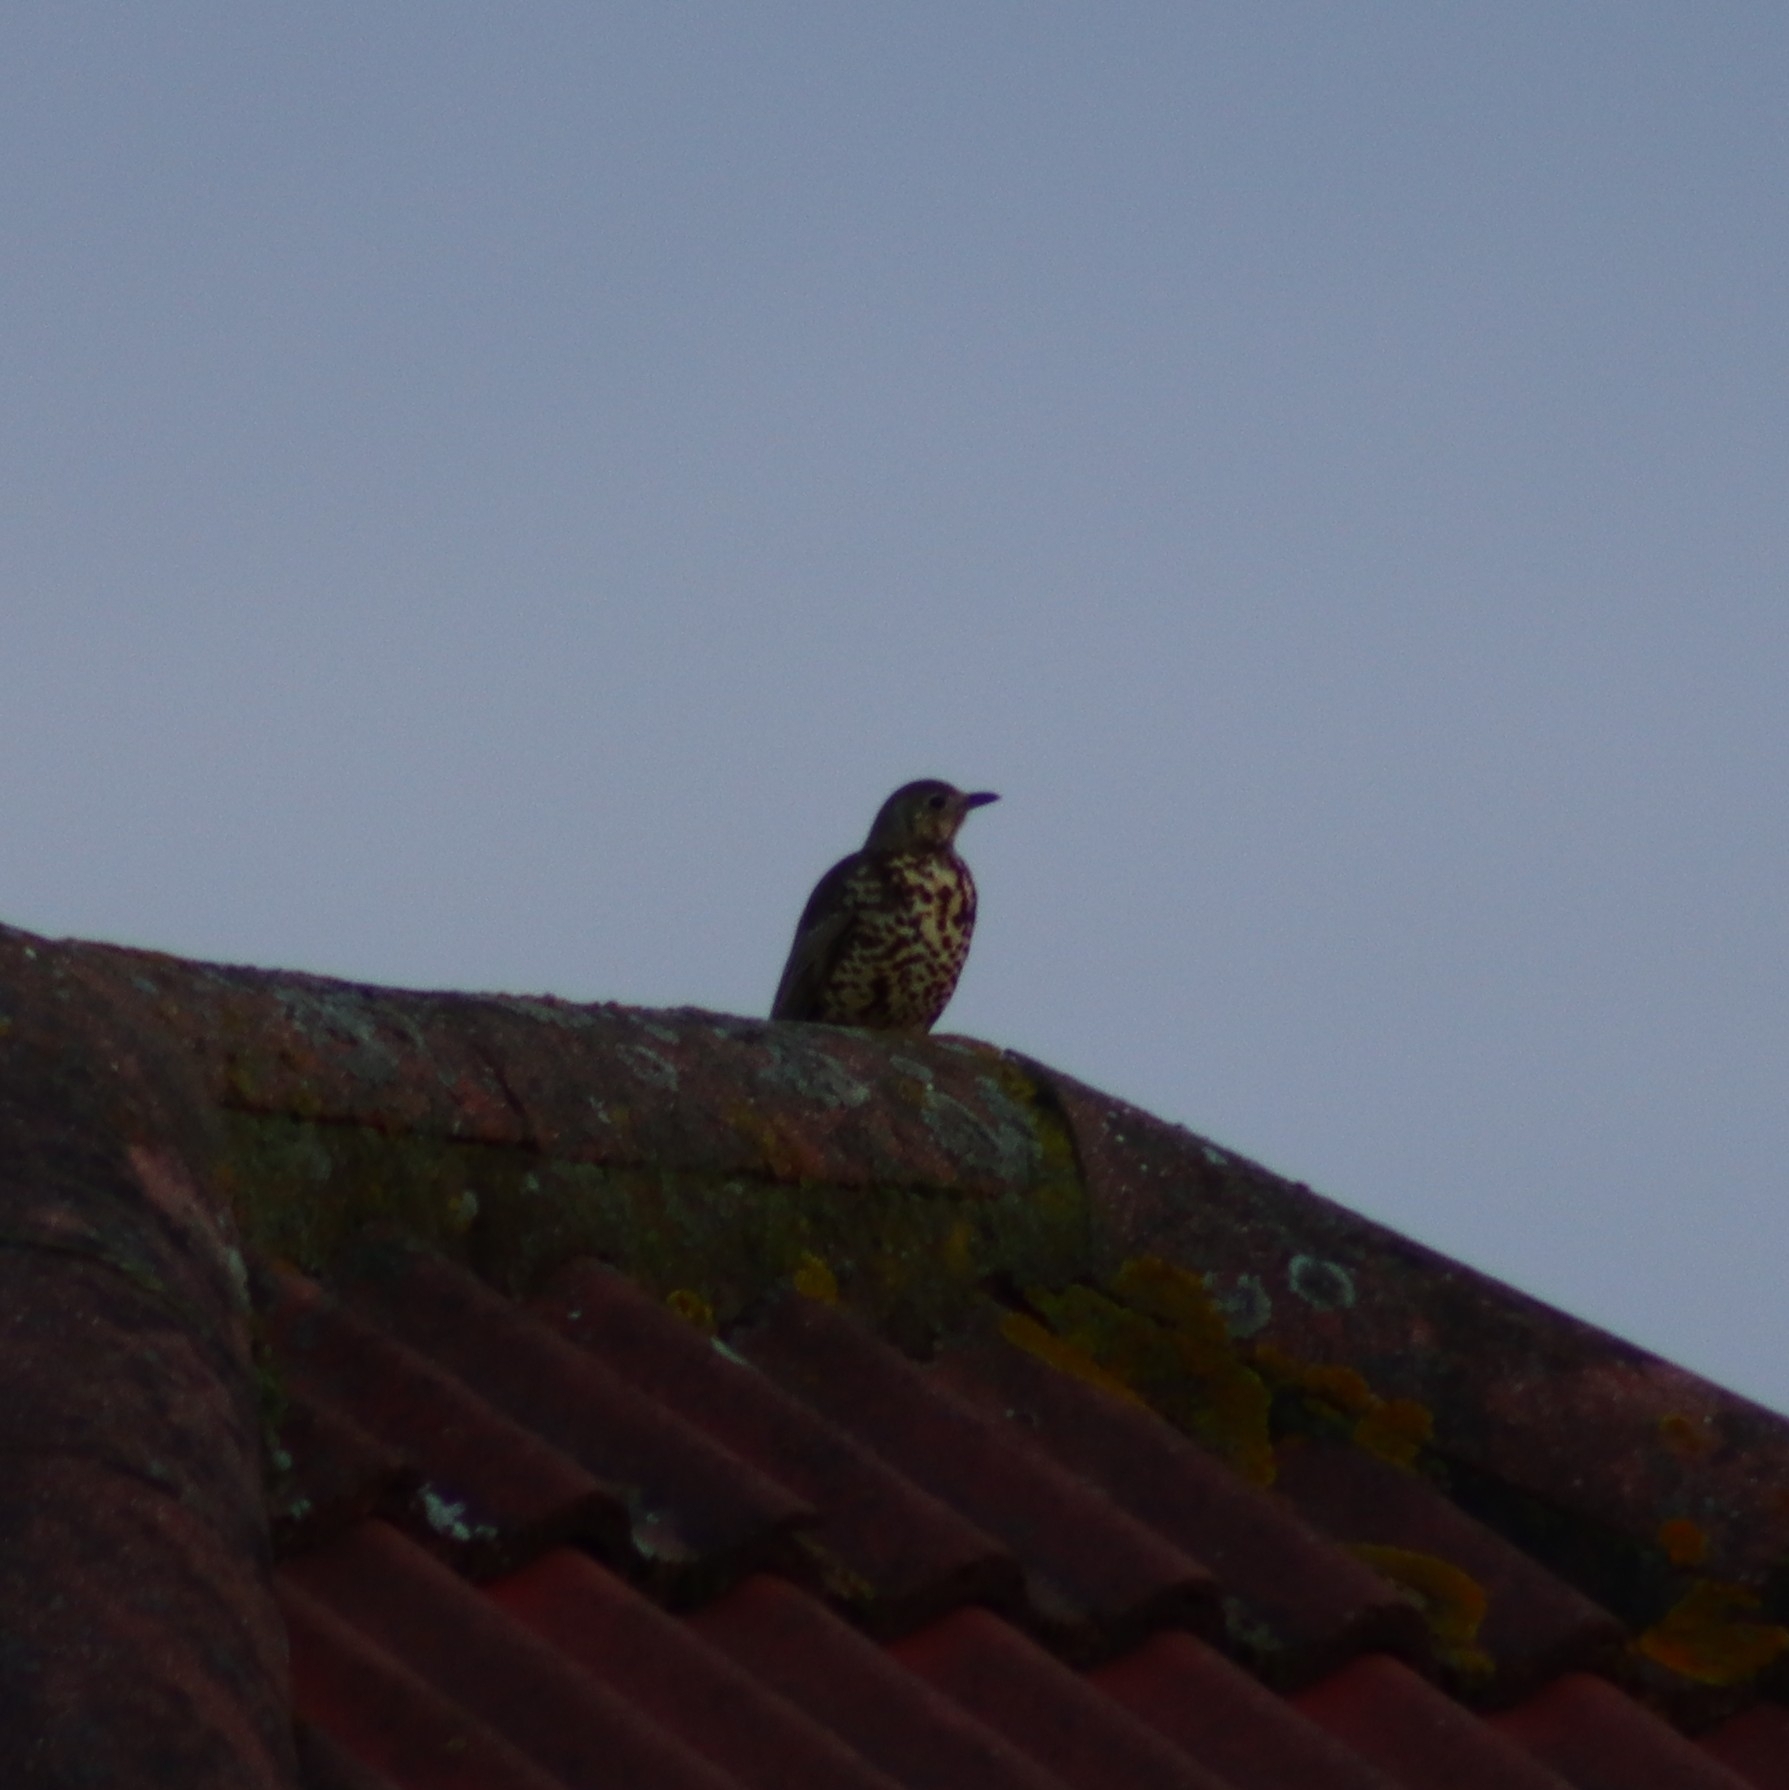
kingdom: Animalia
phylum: Chordata
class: Aves
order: Passeriformes
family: Turdidae
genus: Turdus
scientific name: Turdus viscivorus
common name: Mistle thrush
